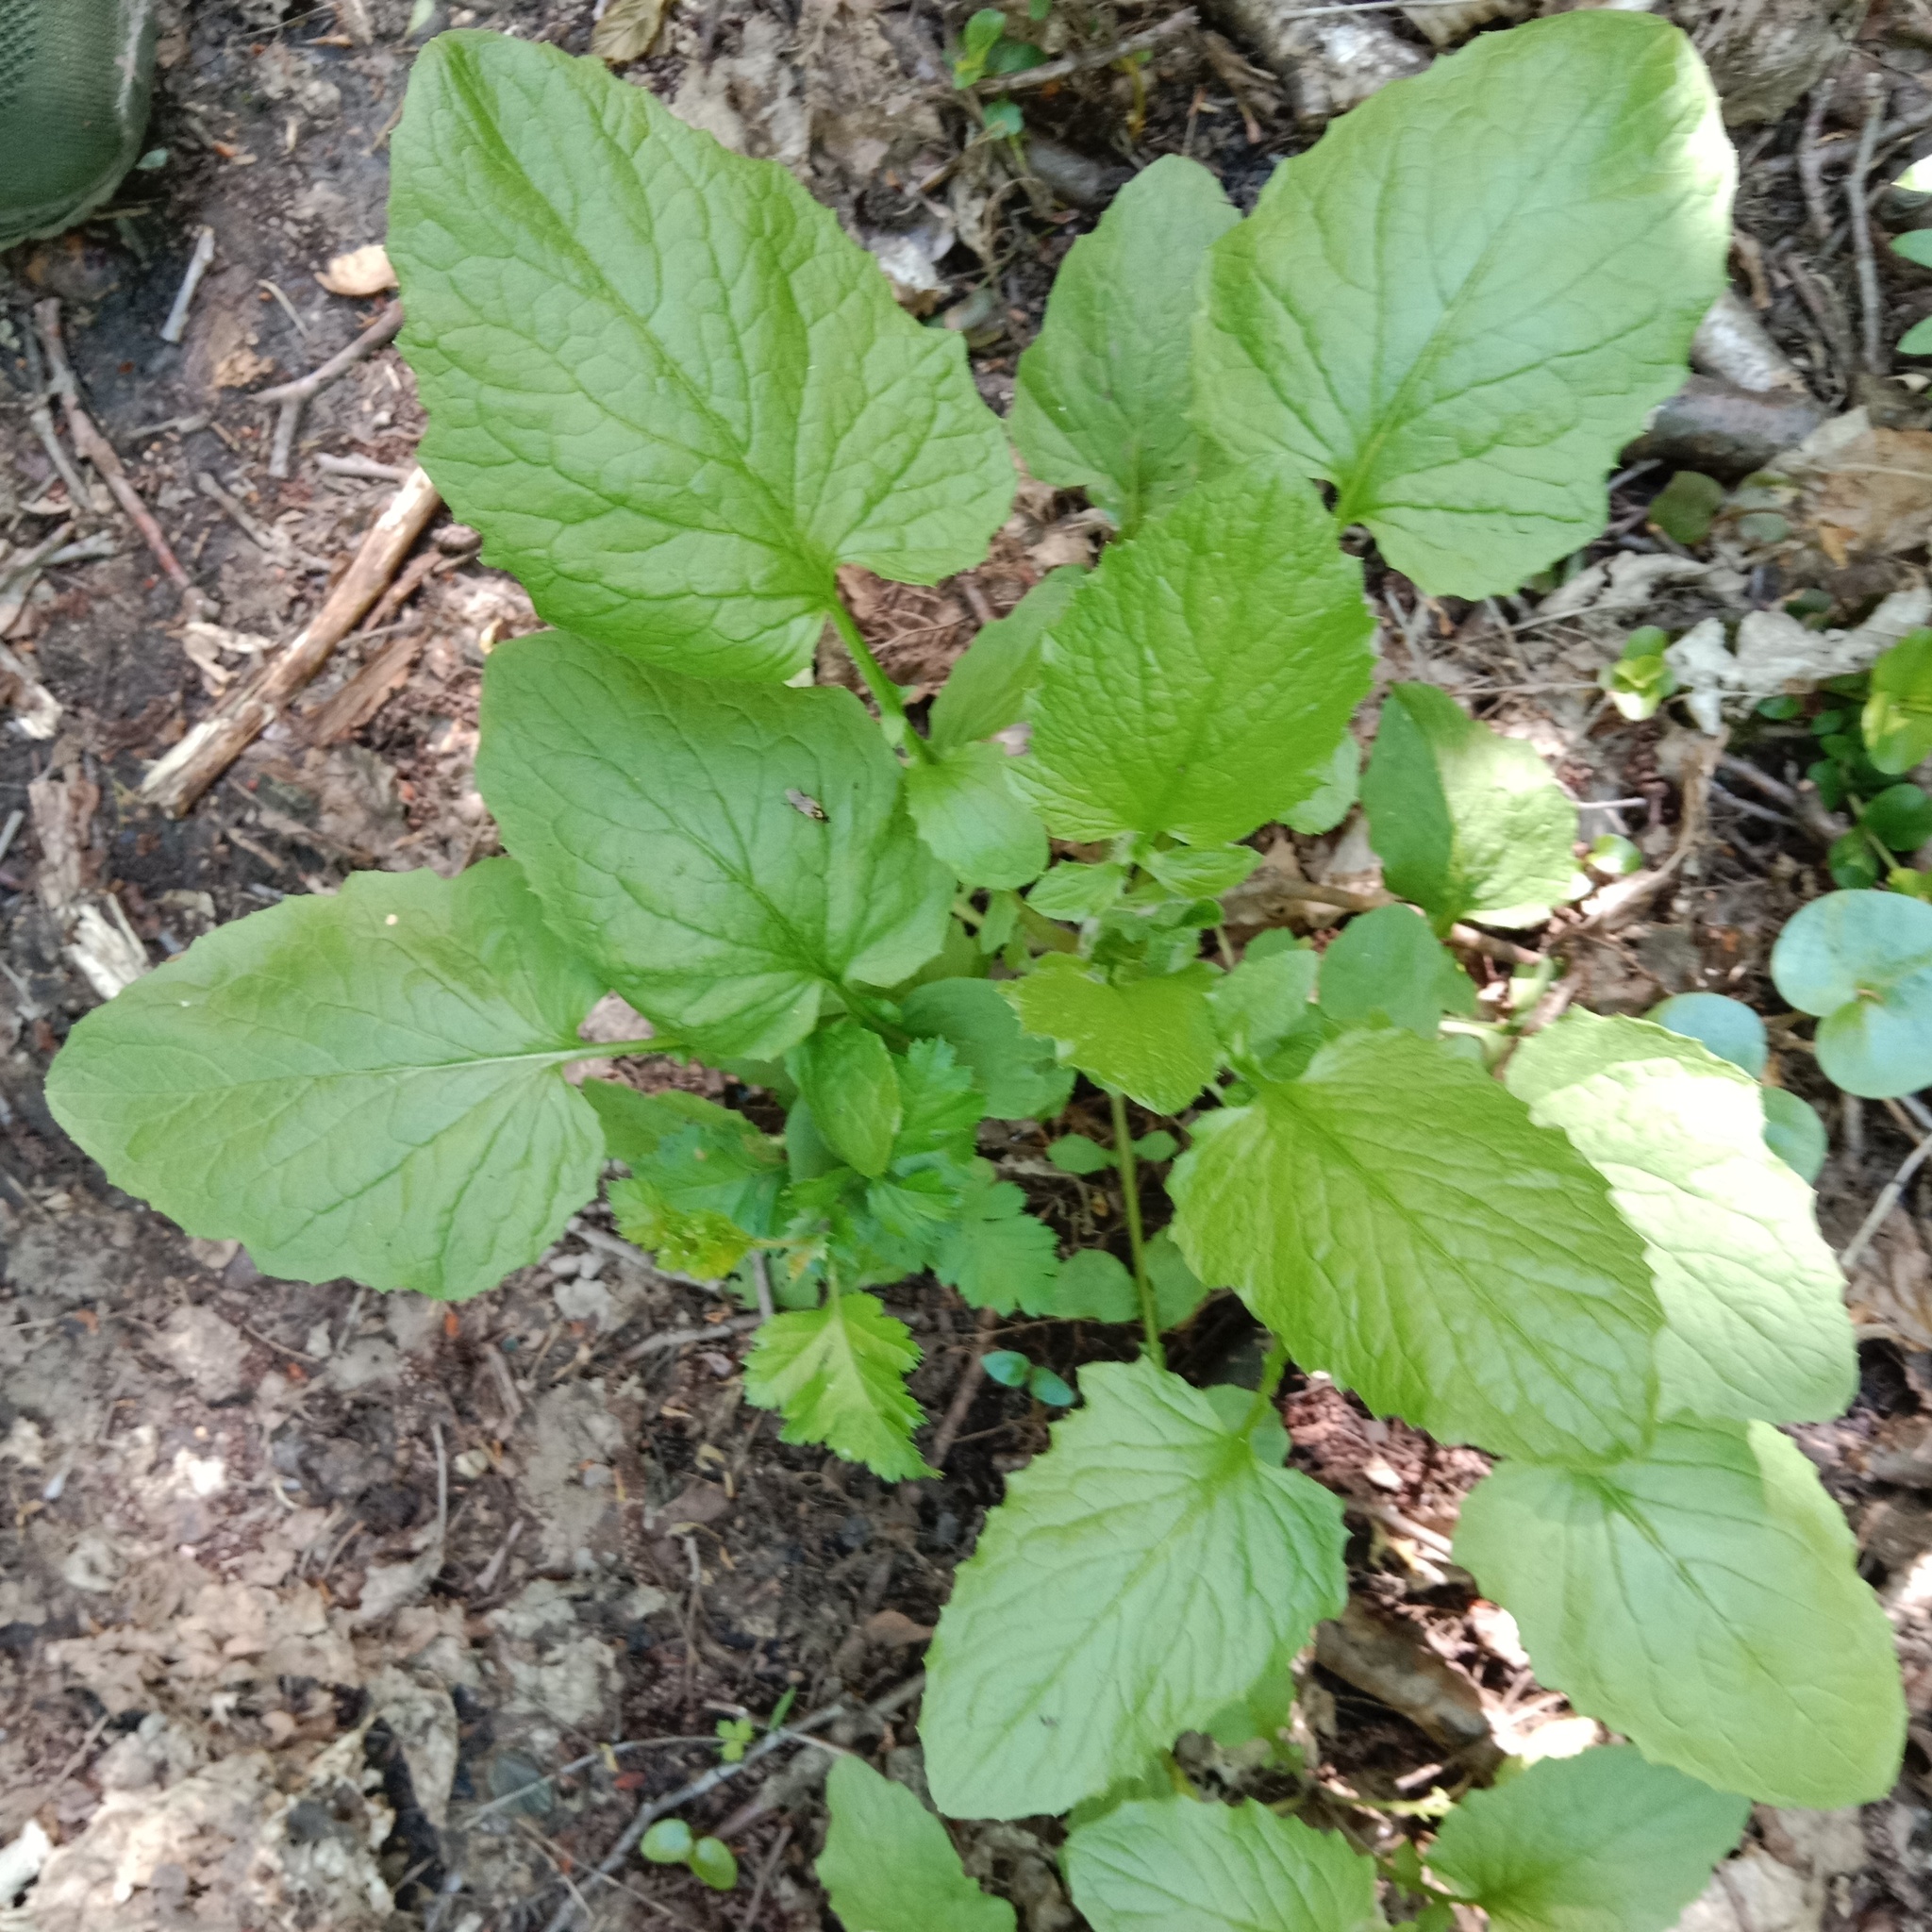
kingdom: Plantae
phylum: Tracheophyta
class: Magnoliopsida
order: Asterales
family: Asteraceae
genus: Lapsana
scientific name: Lapsana communis
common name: Nipplewort
